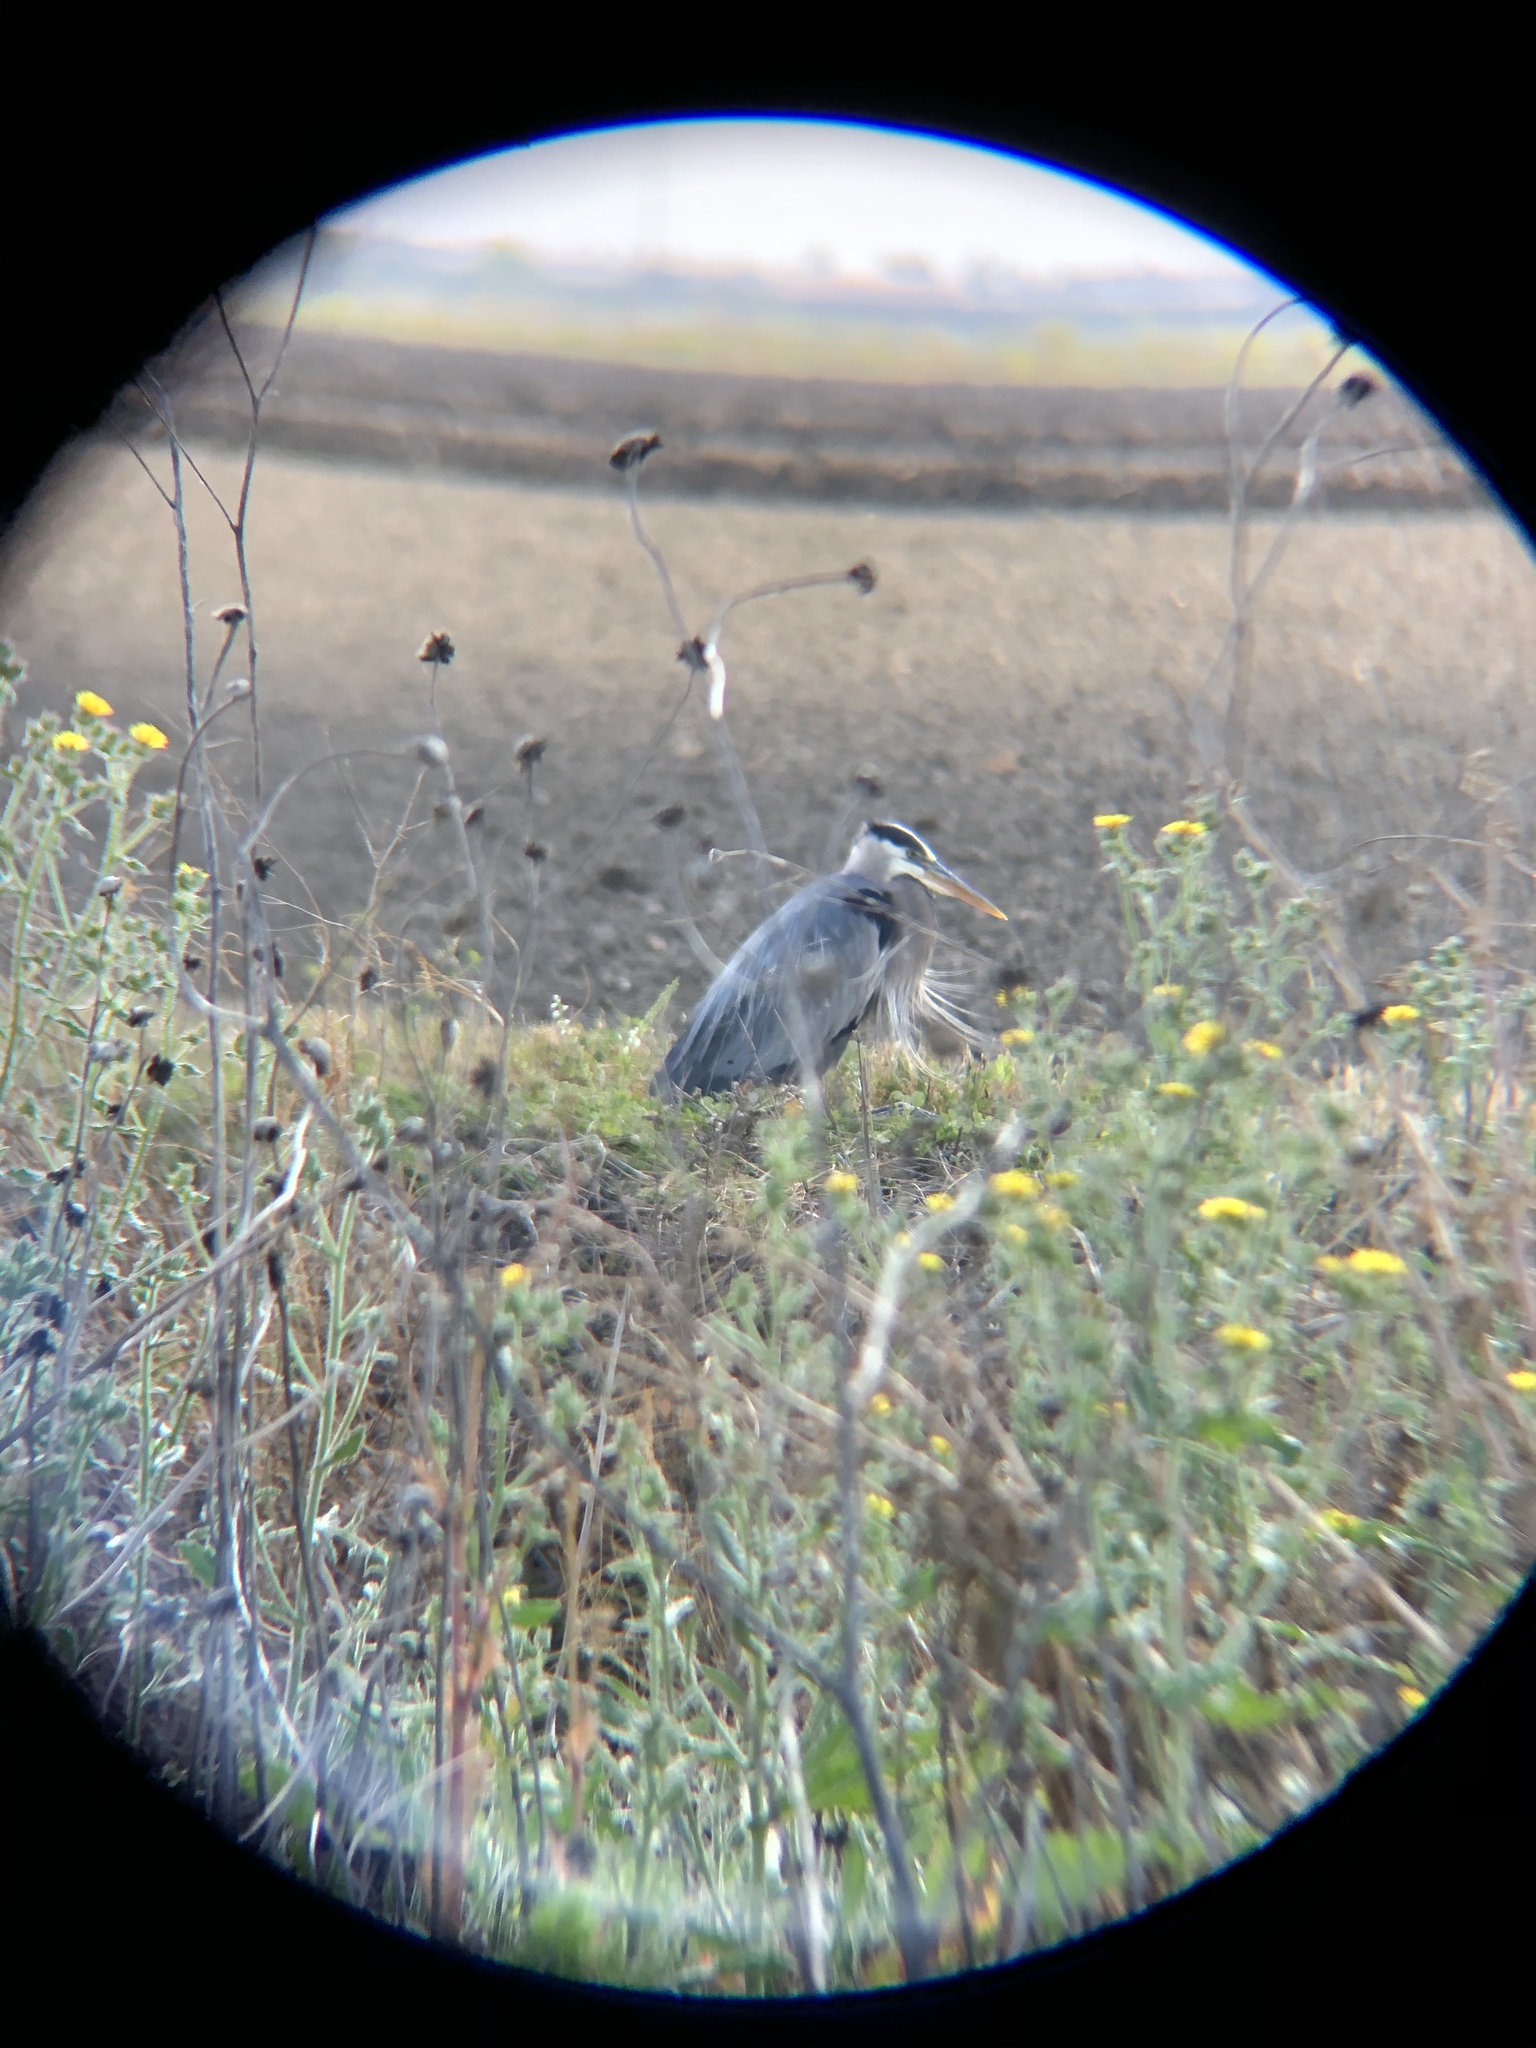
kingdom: Animalia
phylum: Chordata
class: Aves
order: Pelecaniformes
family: Ardeidae
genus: Ardea
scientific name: Ardea herodias
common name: Great blue heron
